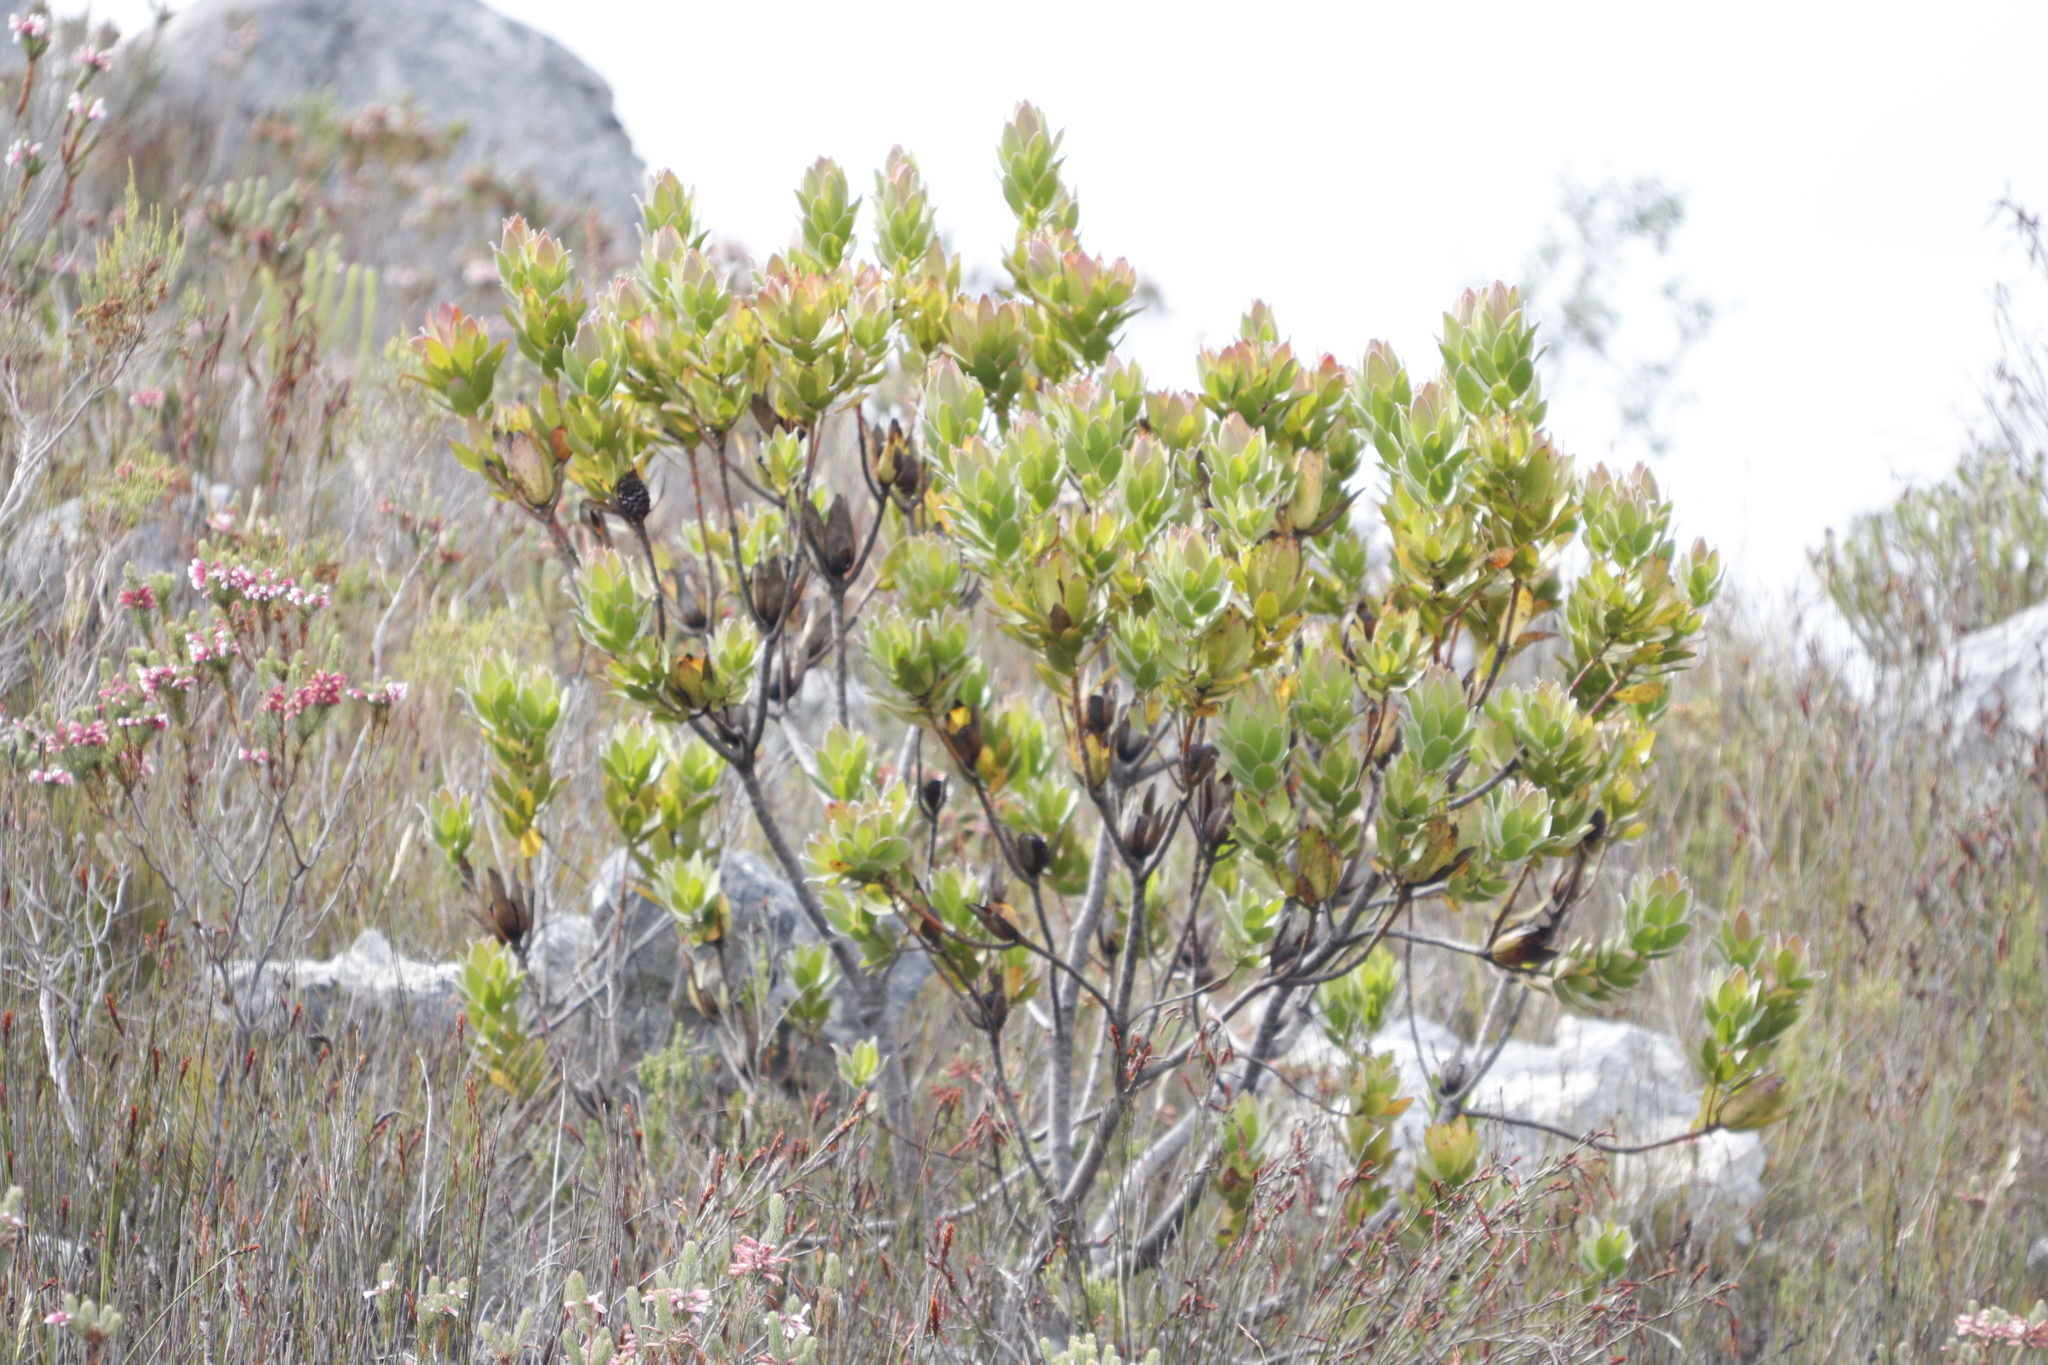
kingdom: Plantae
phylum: Tracheophyta
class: Magnoliopsida
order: Proteales
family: Proteaceae
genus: Leucadendron
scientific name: Leucadendron gandogeri
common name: Broad-leaf conebush
